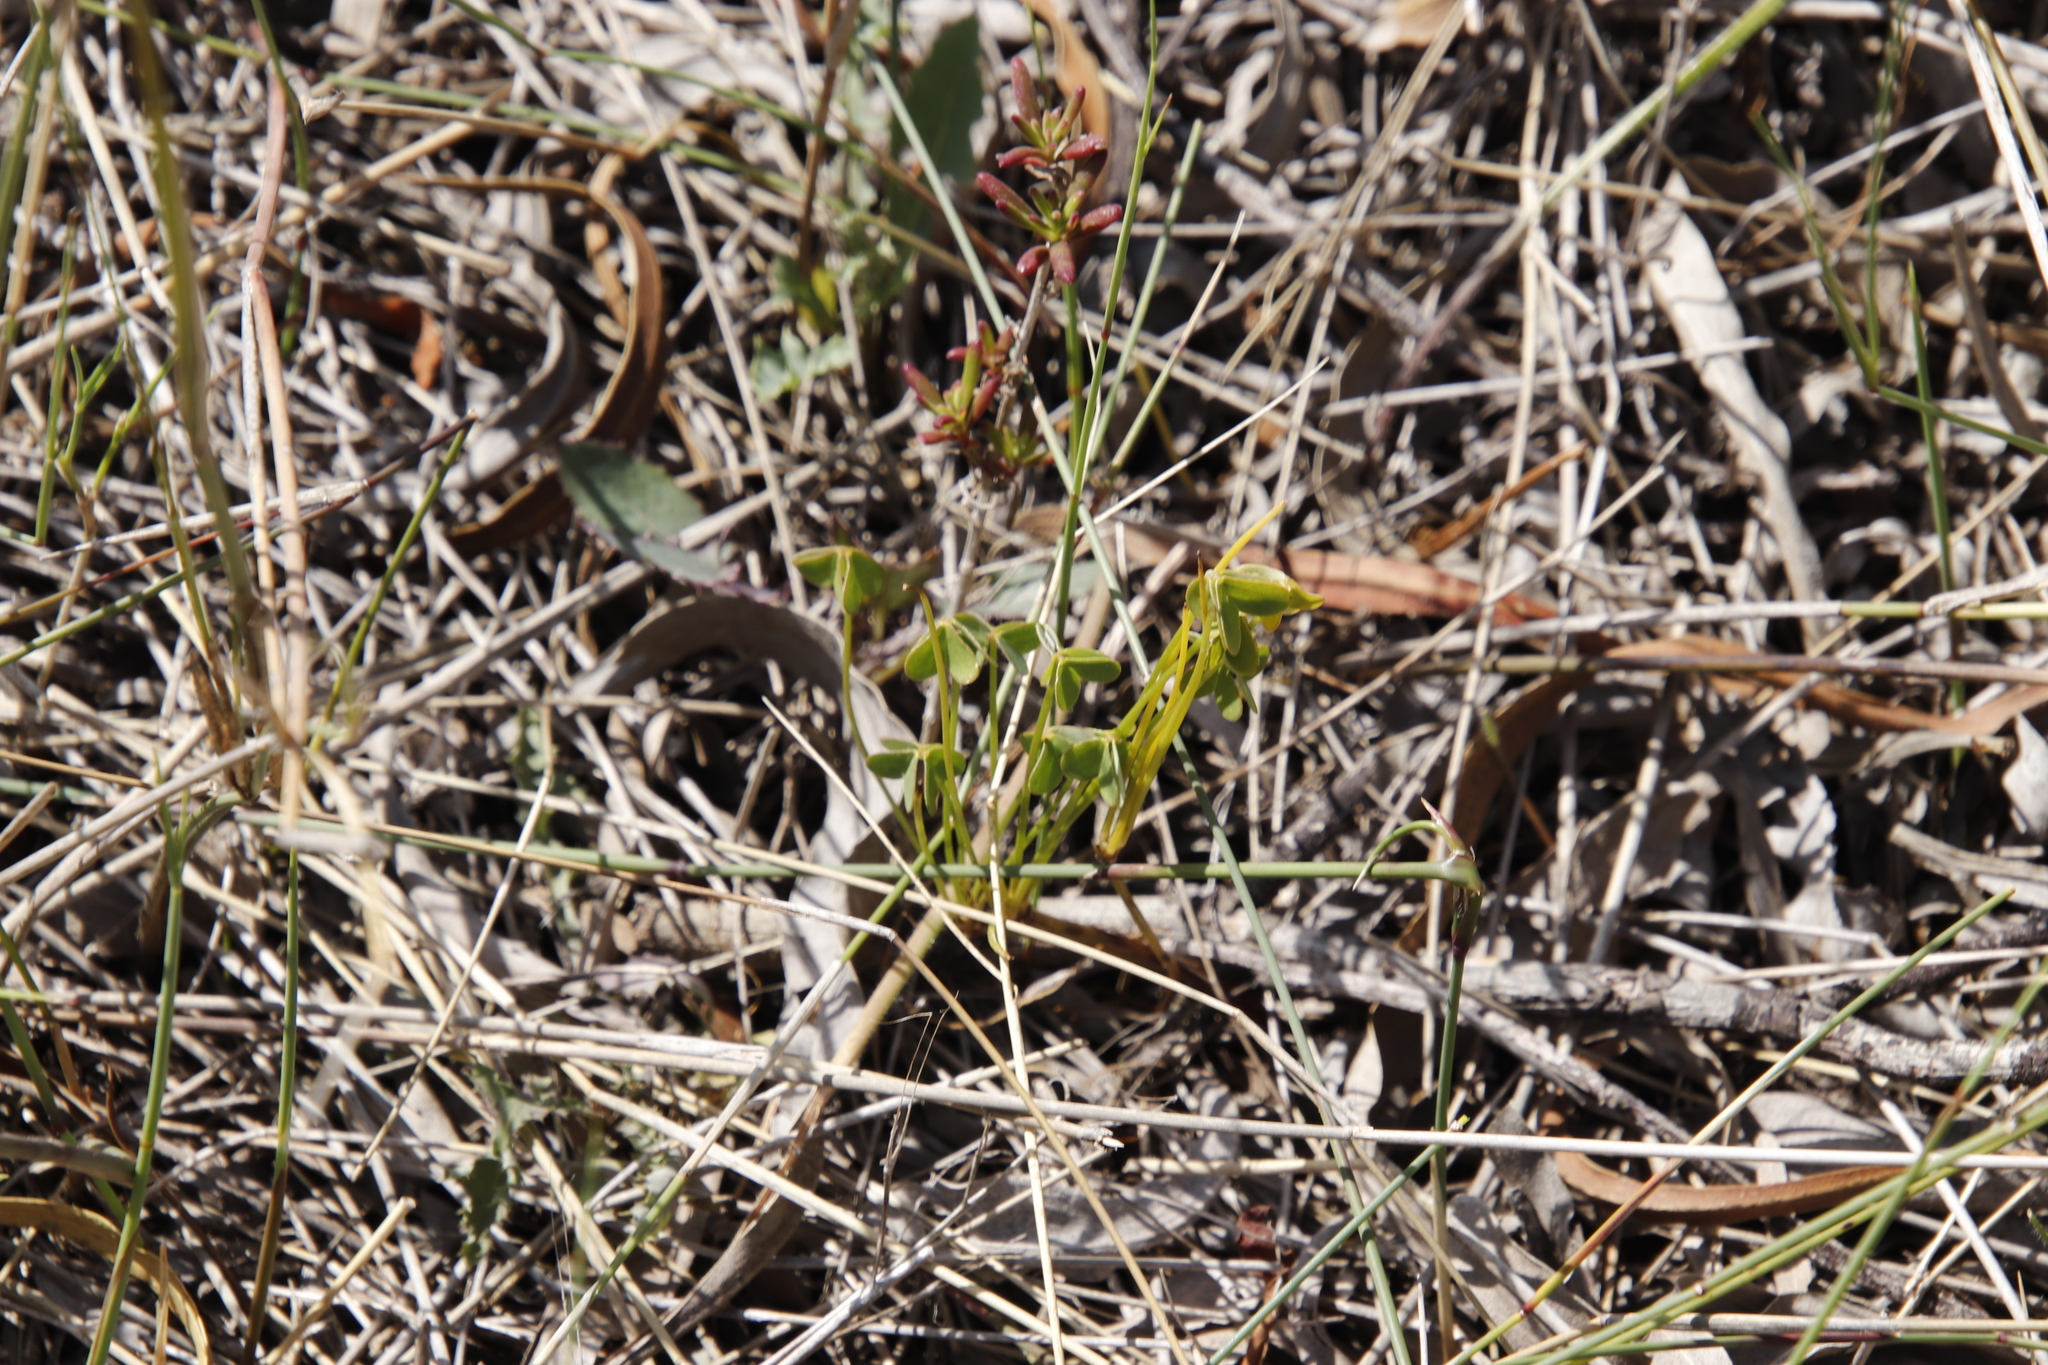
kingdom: Plantae
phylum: Tracheophyta
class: Magnoliopsida
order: Oxalidales
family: Oxalidaceae
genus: Oxalis
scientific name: Oxalis pes-caprae
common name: Bermuda-buttercup
